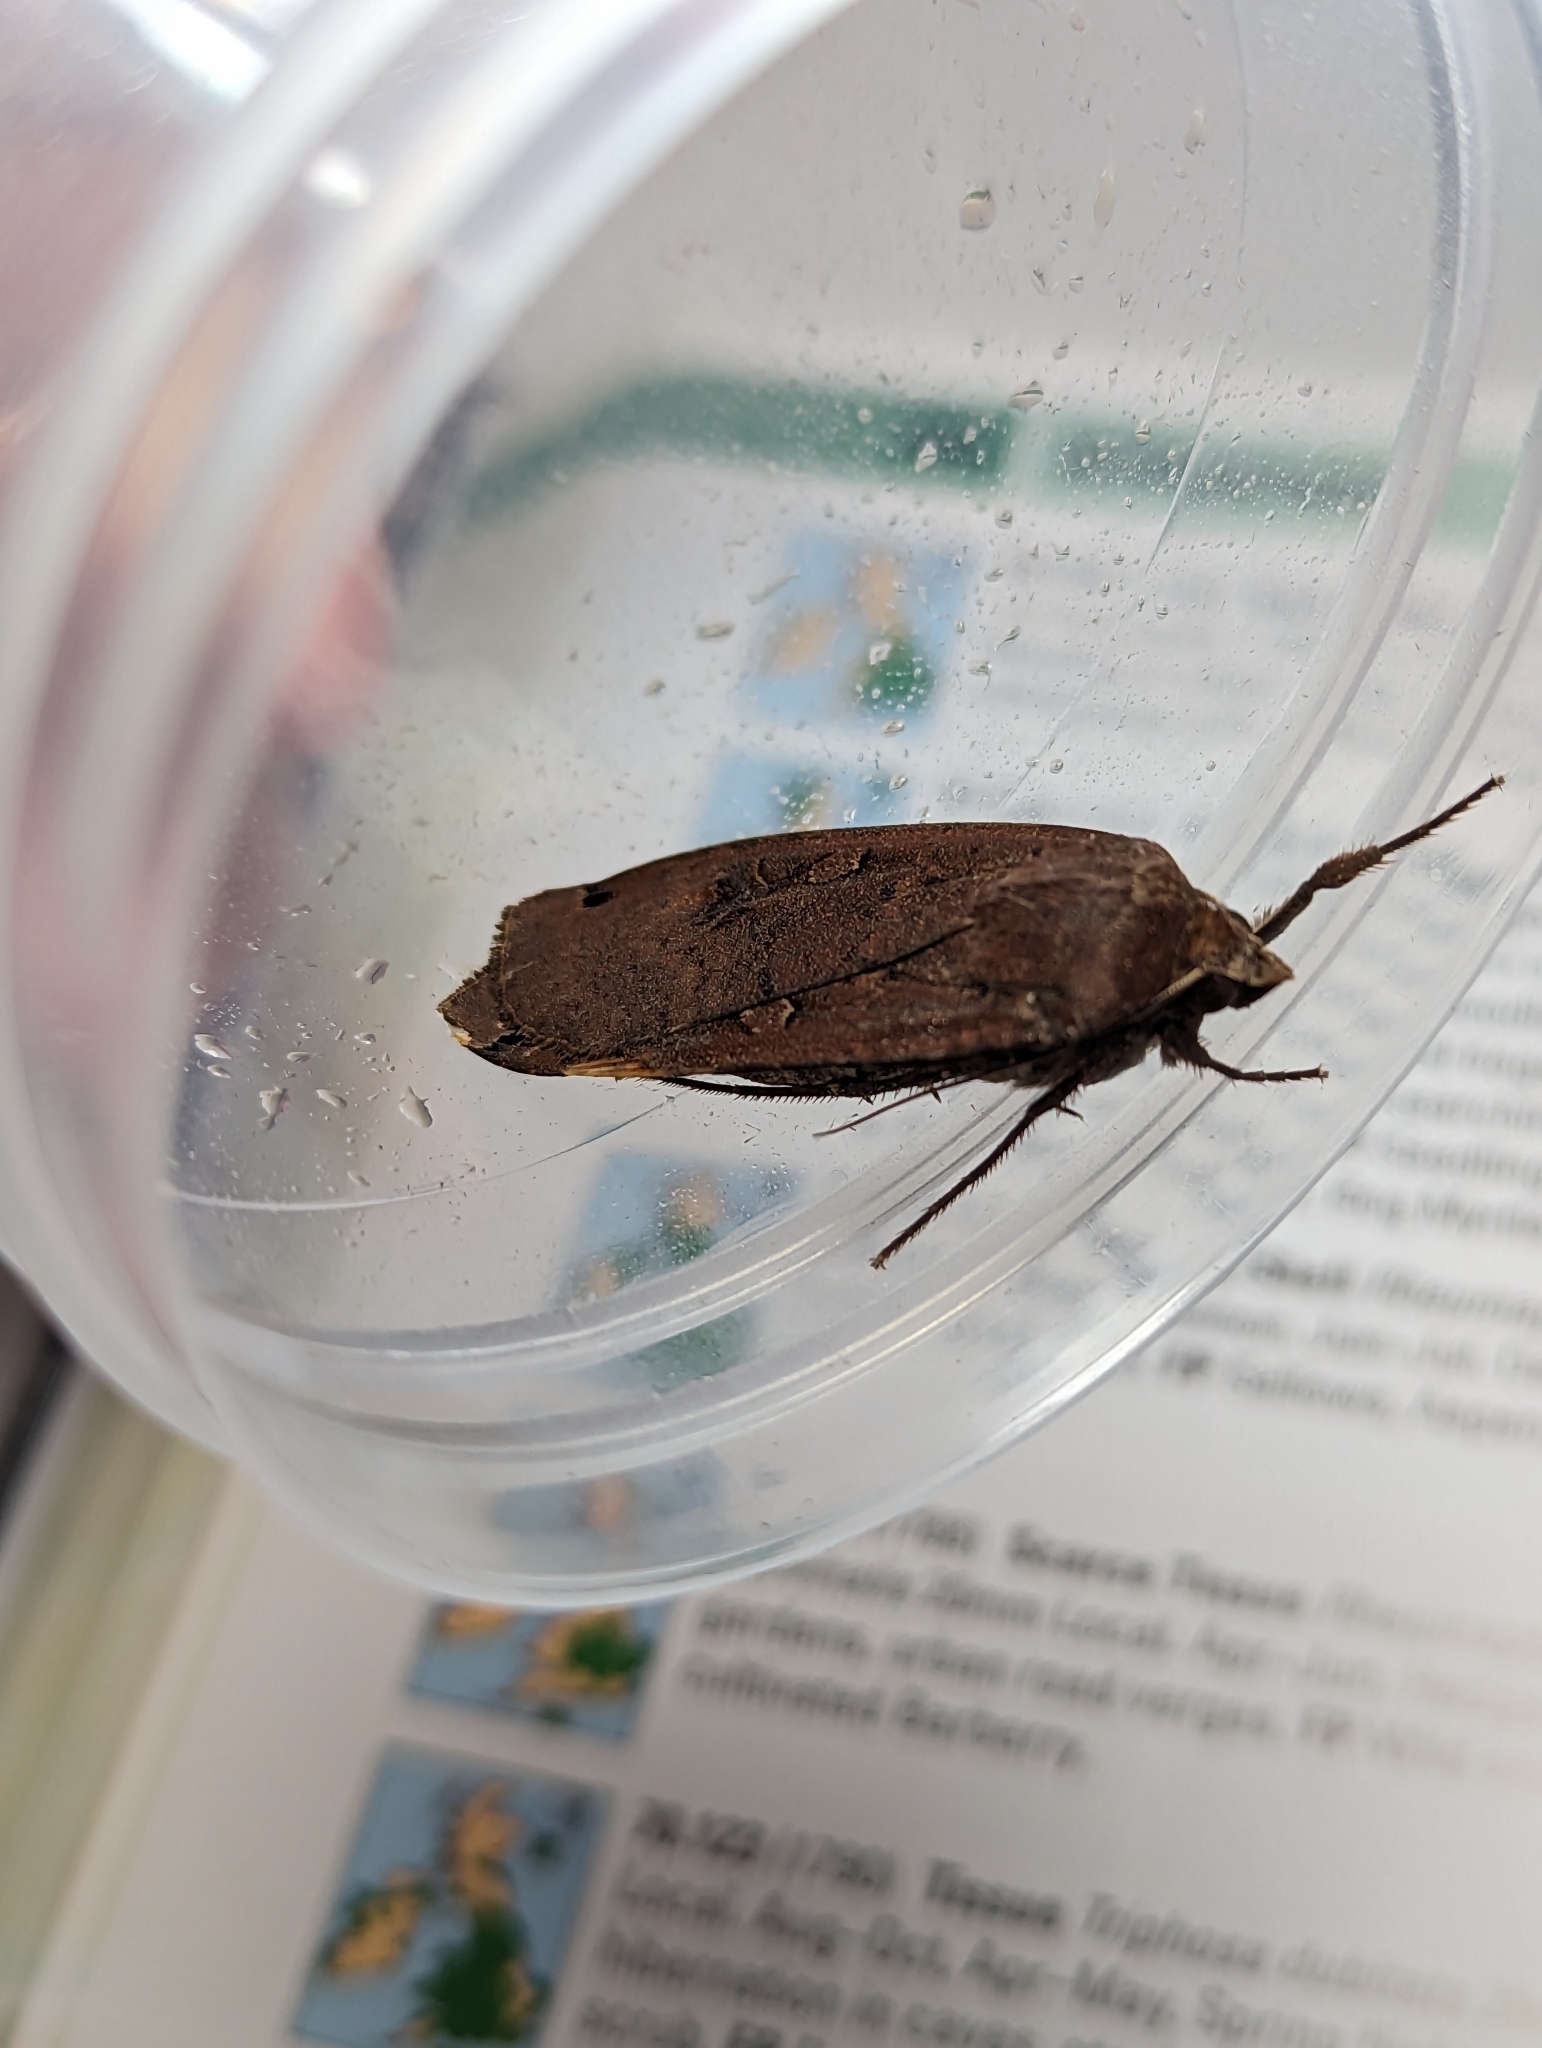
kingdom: Animalia
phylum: Arthropoda
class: Insecta
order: Lepidoptera
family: Noctuidae
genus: Noctua
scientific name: Noctua pronuba
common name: Large yellow underwing
